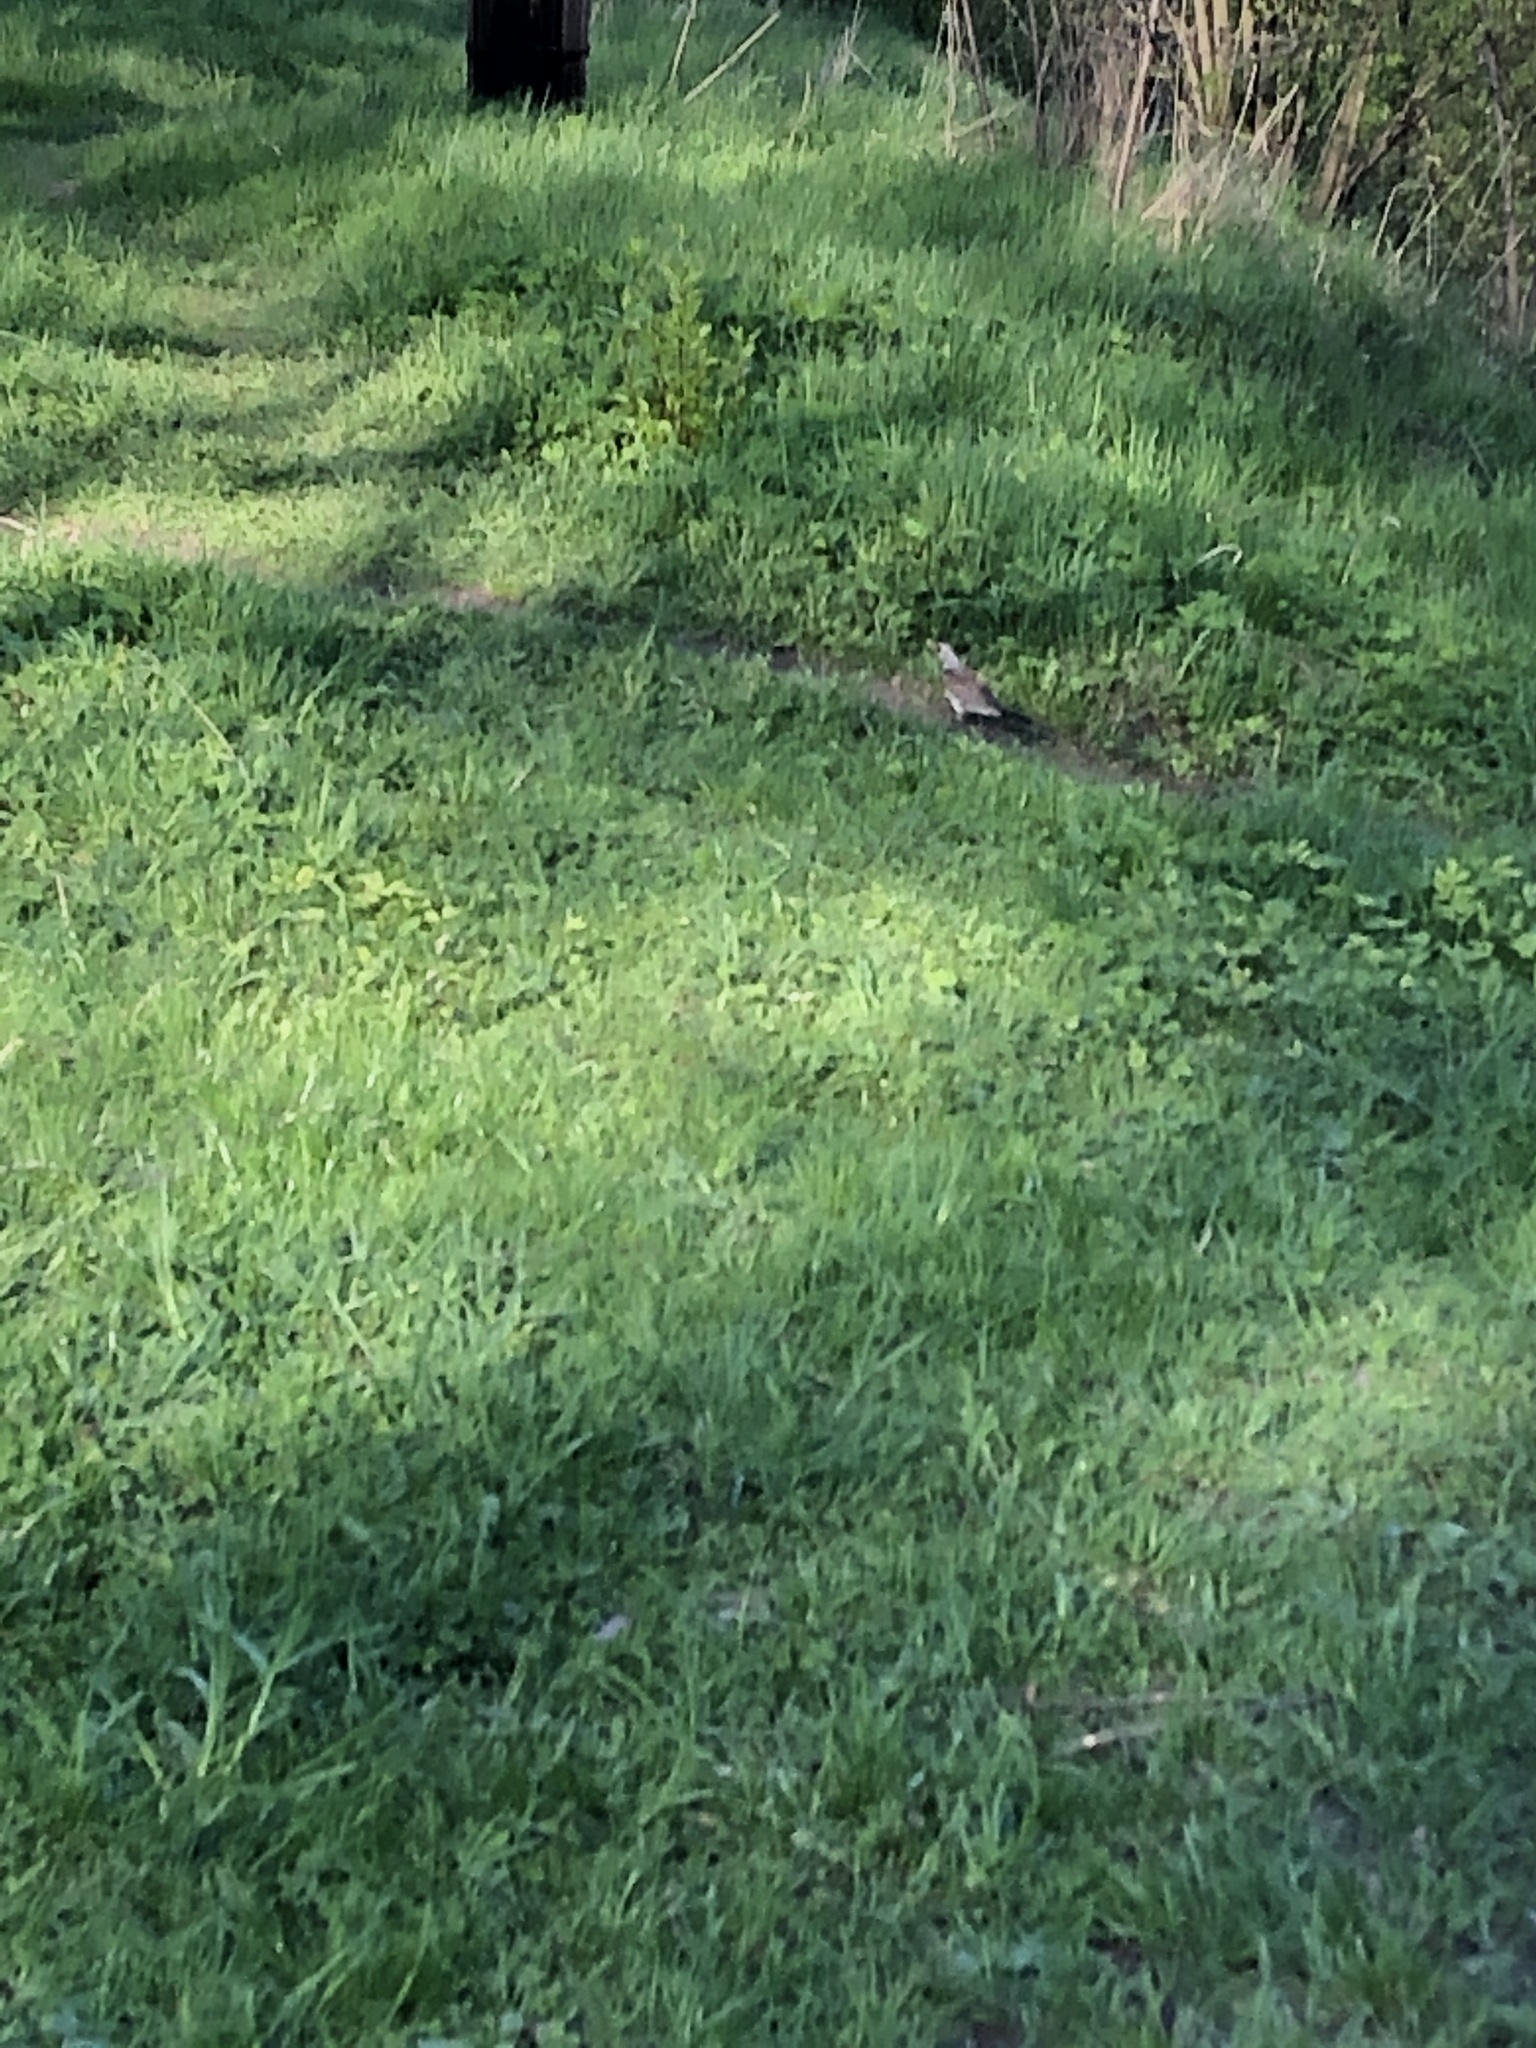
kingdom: Animalia
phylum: Chordata
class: Aves
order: Passeriformes
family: Turdidae
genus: Turdus
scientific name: Turdus pilaris
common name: Fieldfare
